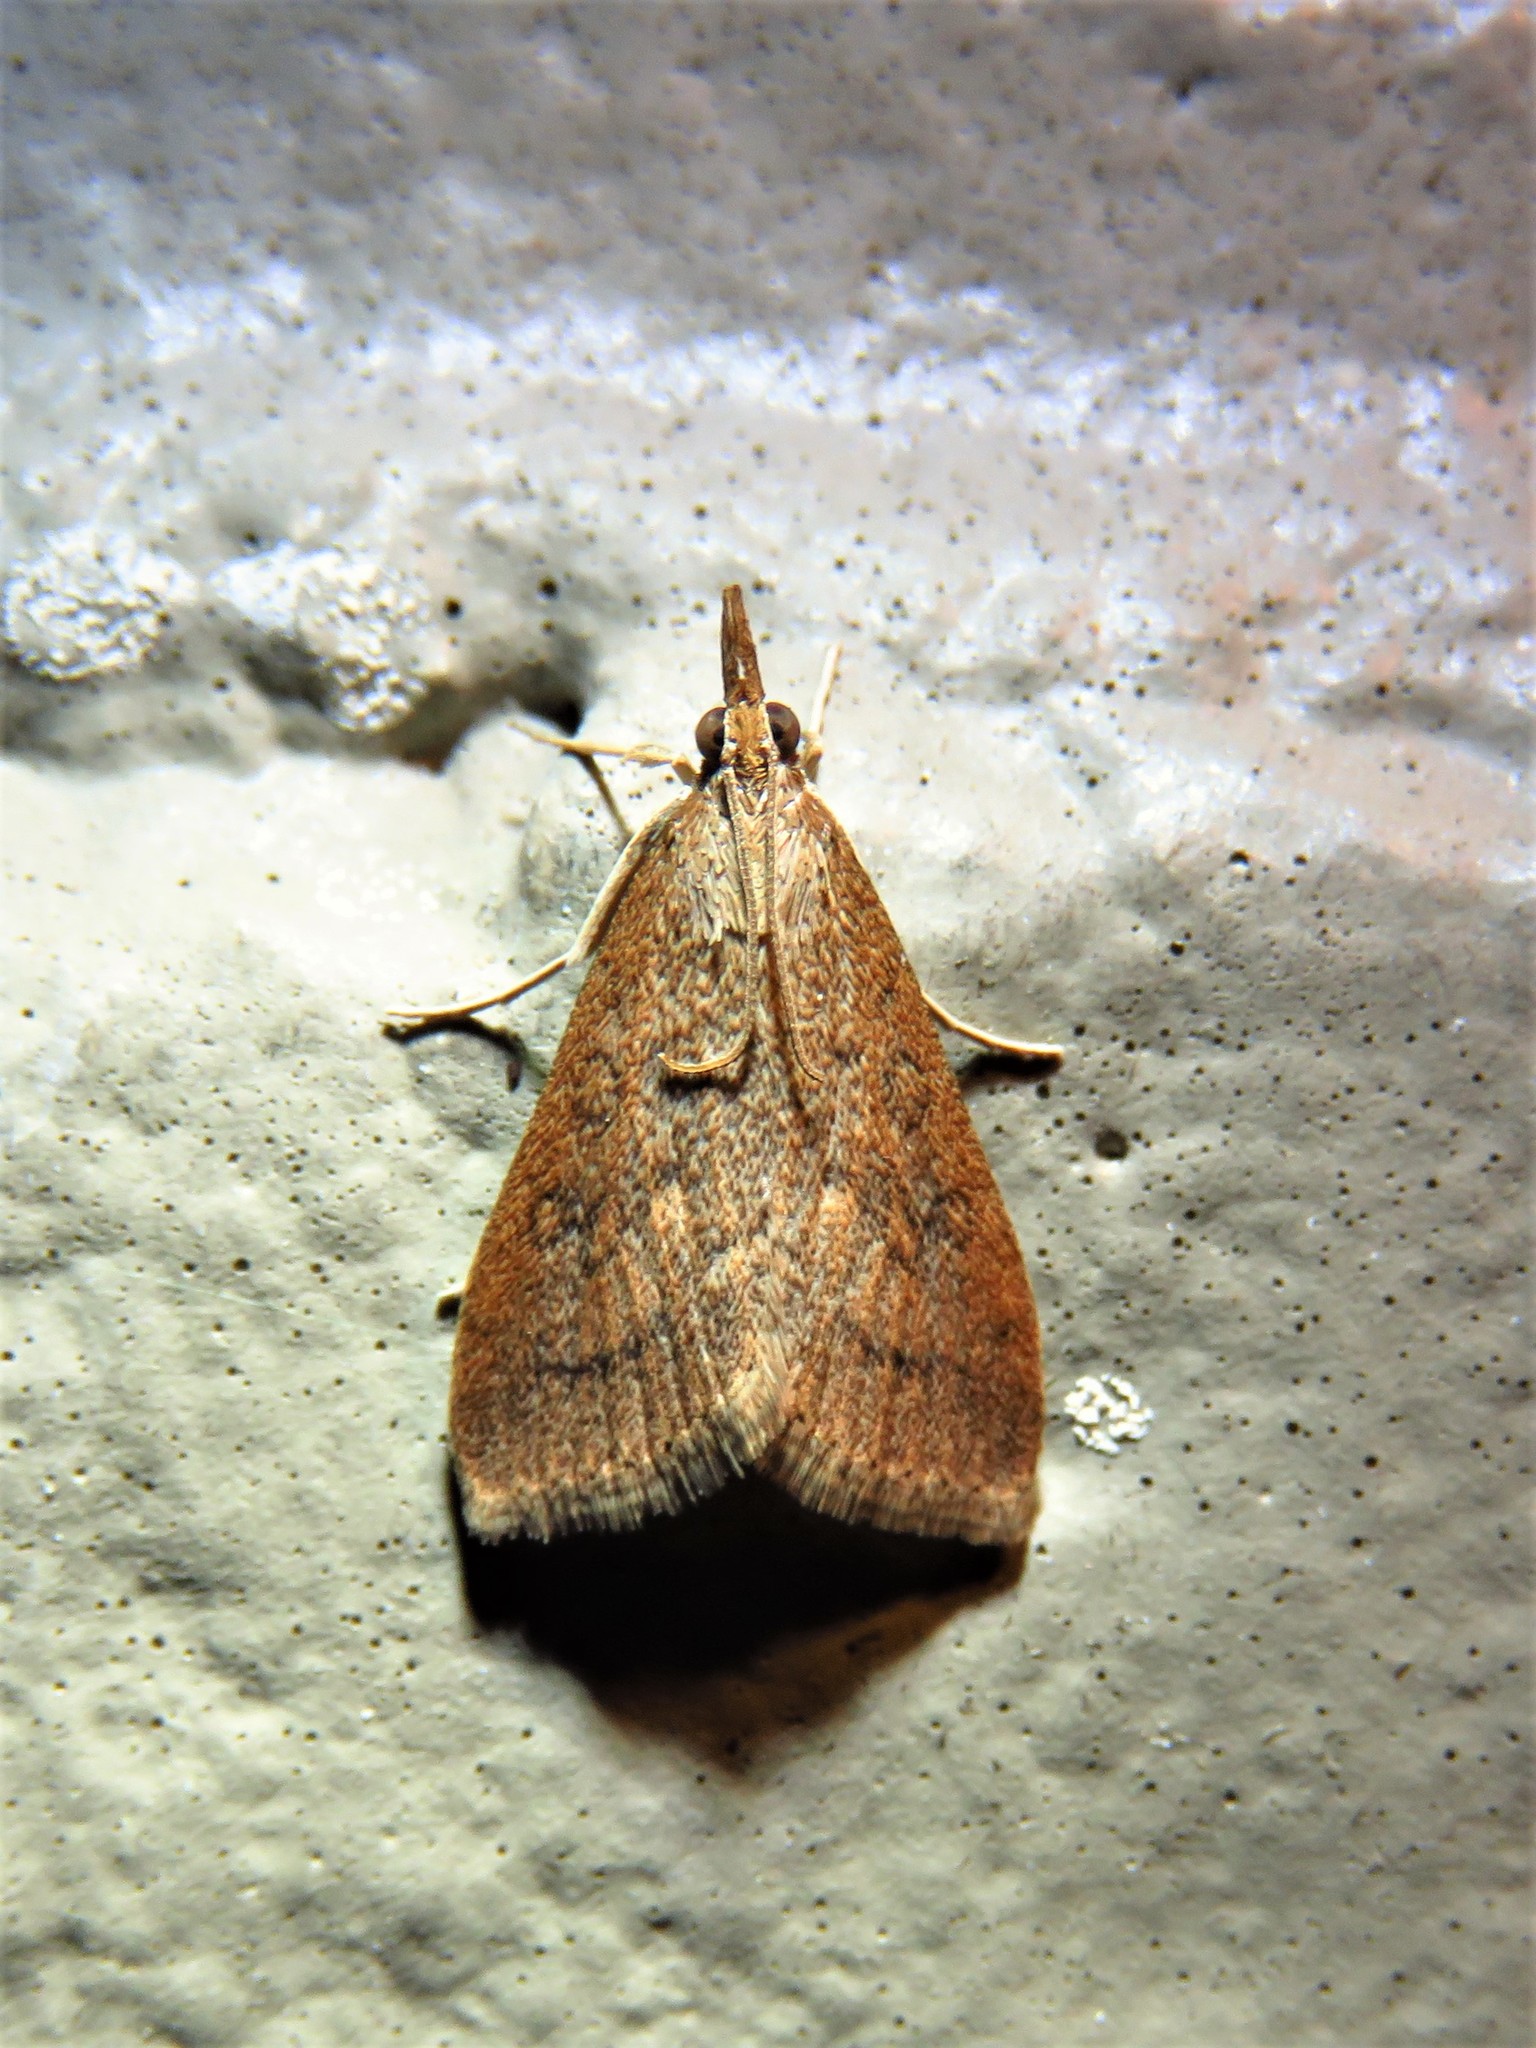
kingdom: Animalia
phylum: Arthropoda
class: Insecta
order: Lepidoptera
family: Crambidae
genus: Udea
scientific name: Udea rubigalis
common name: Celery leaftier moth
